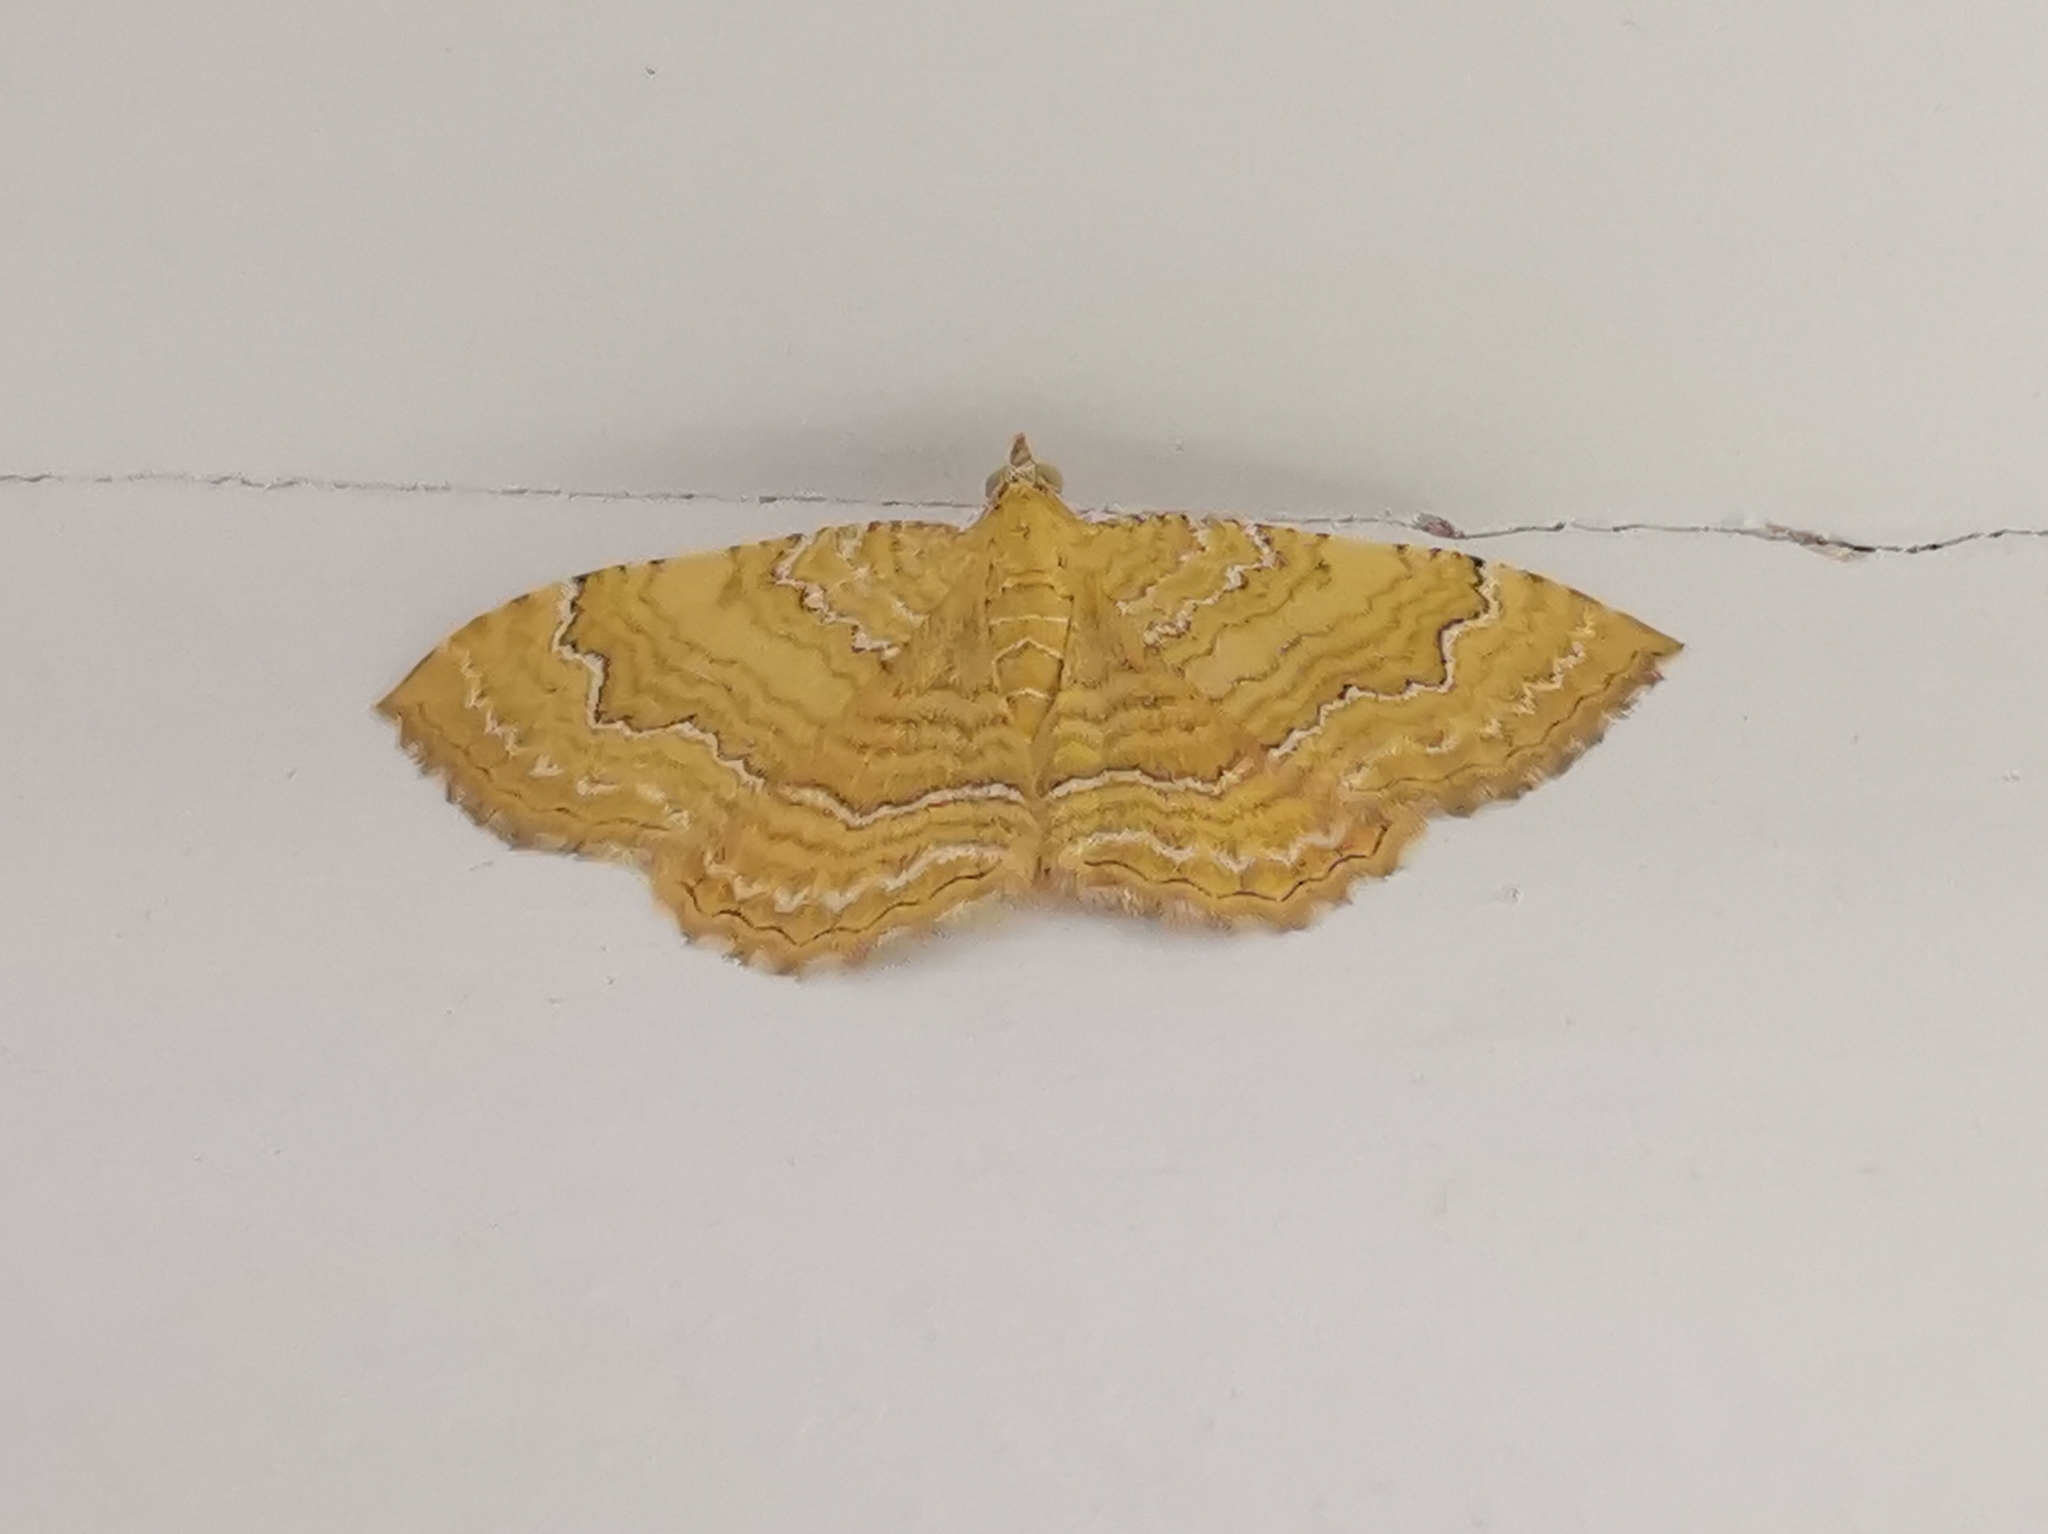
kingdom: Animalia
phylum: Arthropoda
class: Insecta
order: Lepidoptera
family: Geometridae
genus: Camptogramma
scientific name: Camptogramma bilineata
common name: Yellow shell
